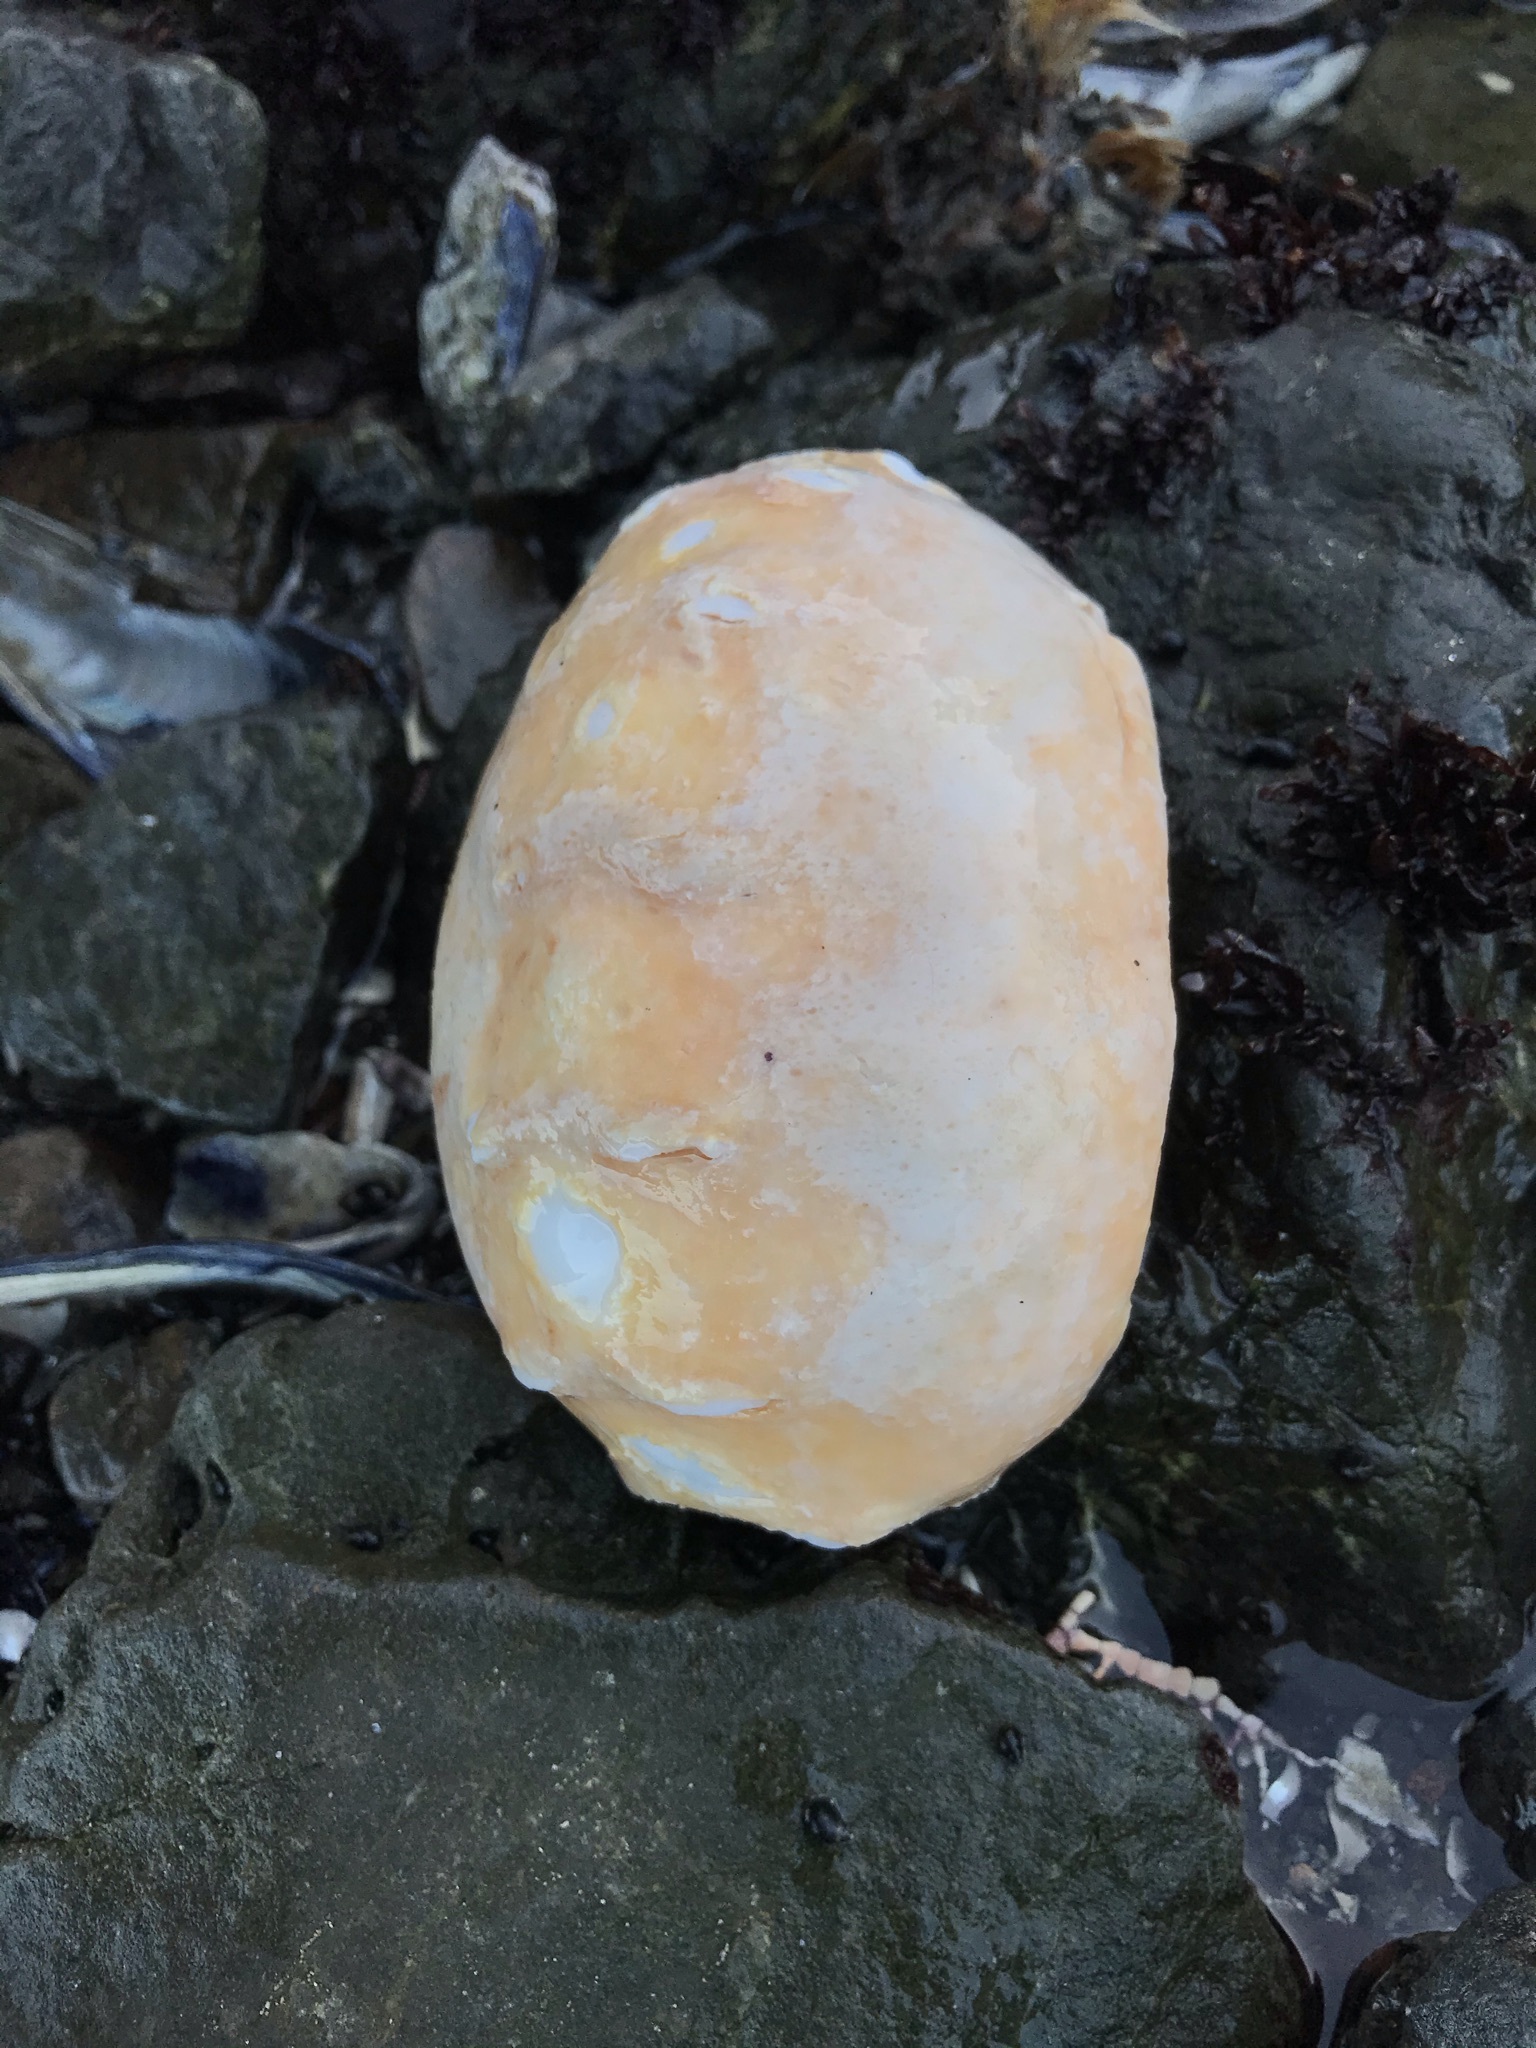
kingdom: Animalia
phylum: Mollusca
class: Polyplacophora
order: Chitonida
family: Acanthochitonidae
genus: Cryptochiton
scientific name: Cryptochiton stelleri
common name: Giant pacific chiton
